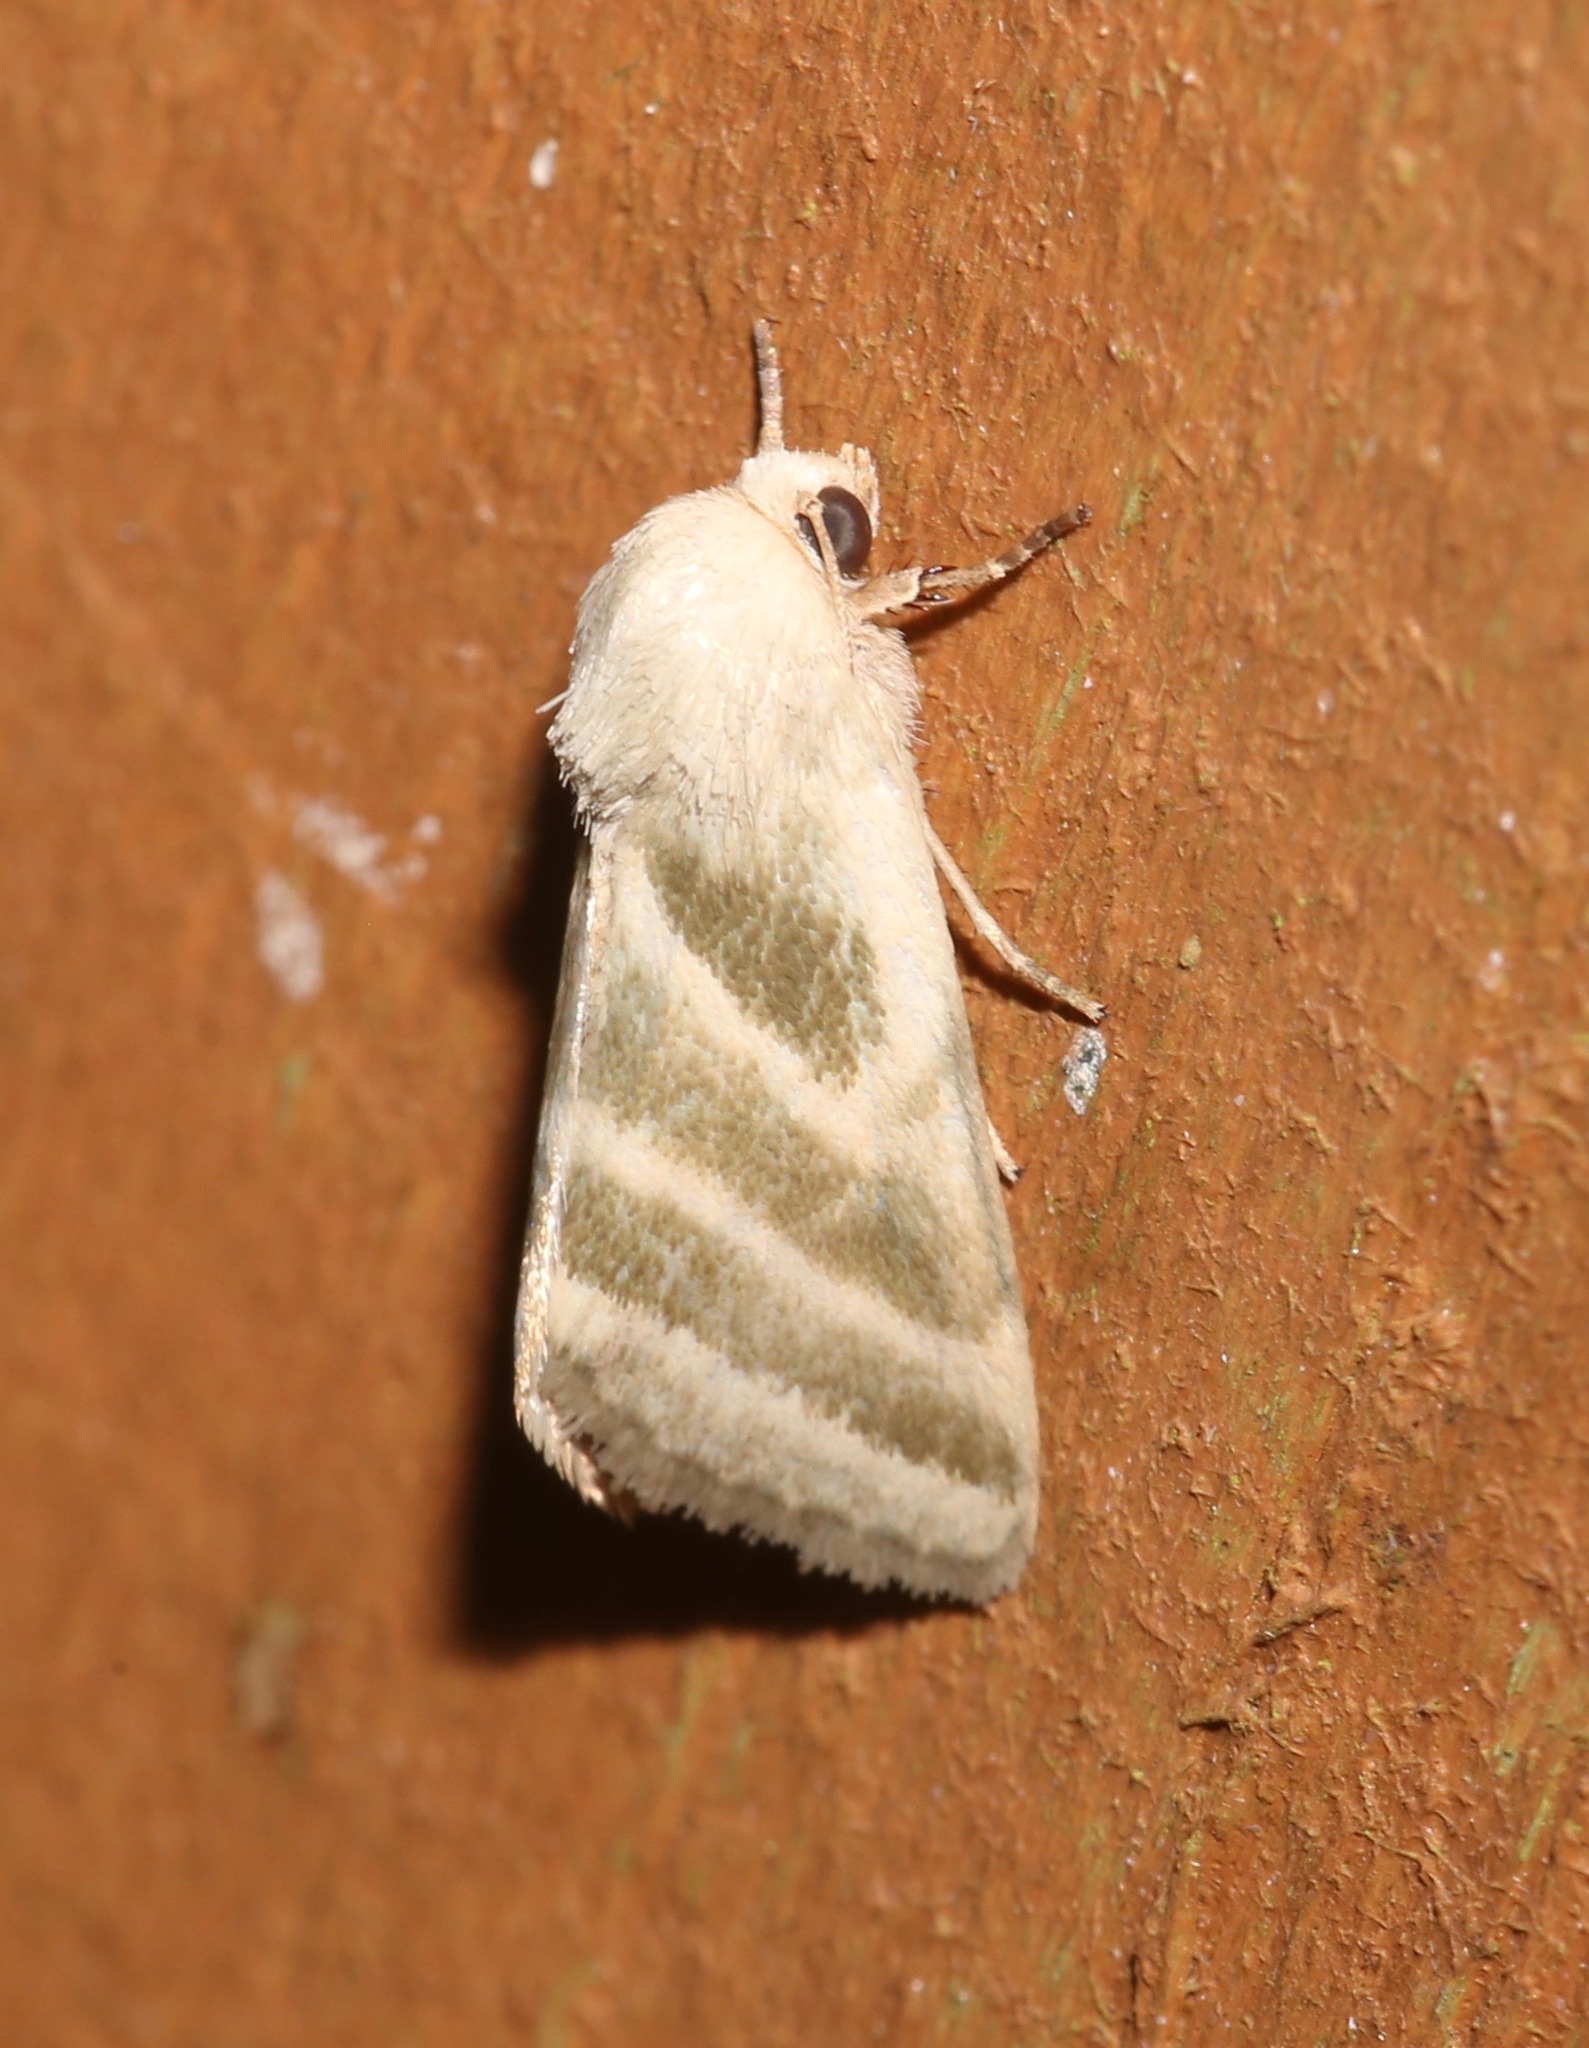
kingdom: Animalia
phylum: Arthropoda
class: Insecta
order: Lepidoptera
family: Noctuidae
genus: Schinia
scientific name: Schinia trifascia
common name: Three-lined flower moth
